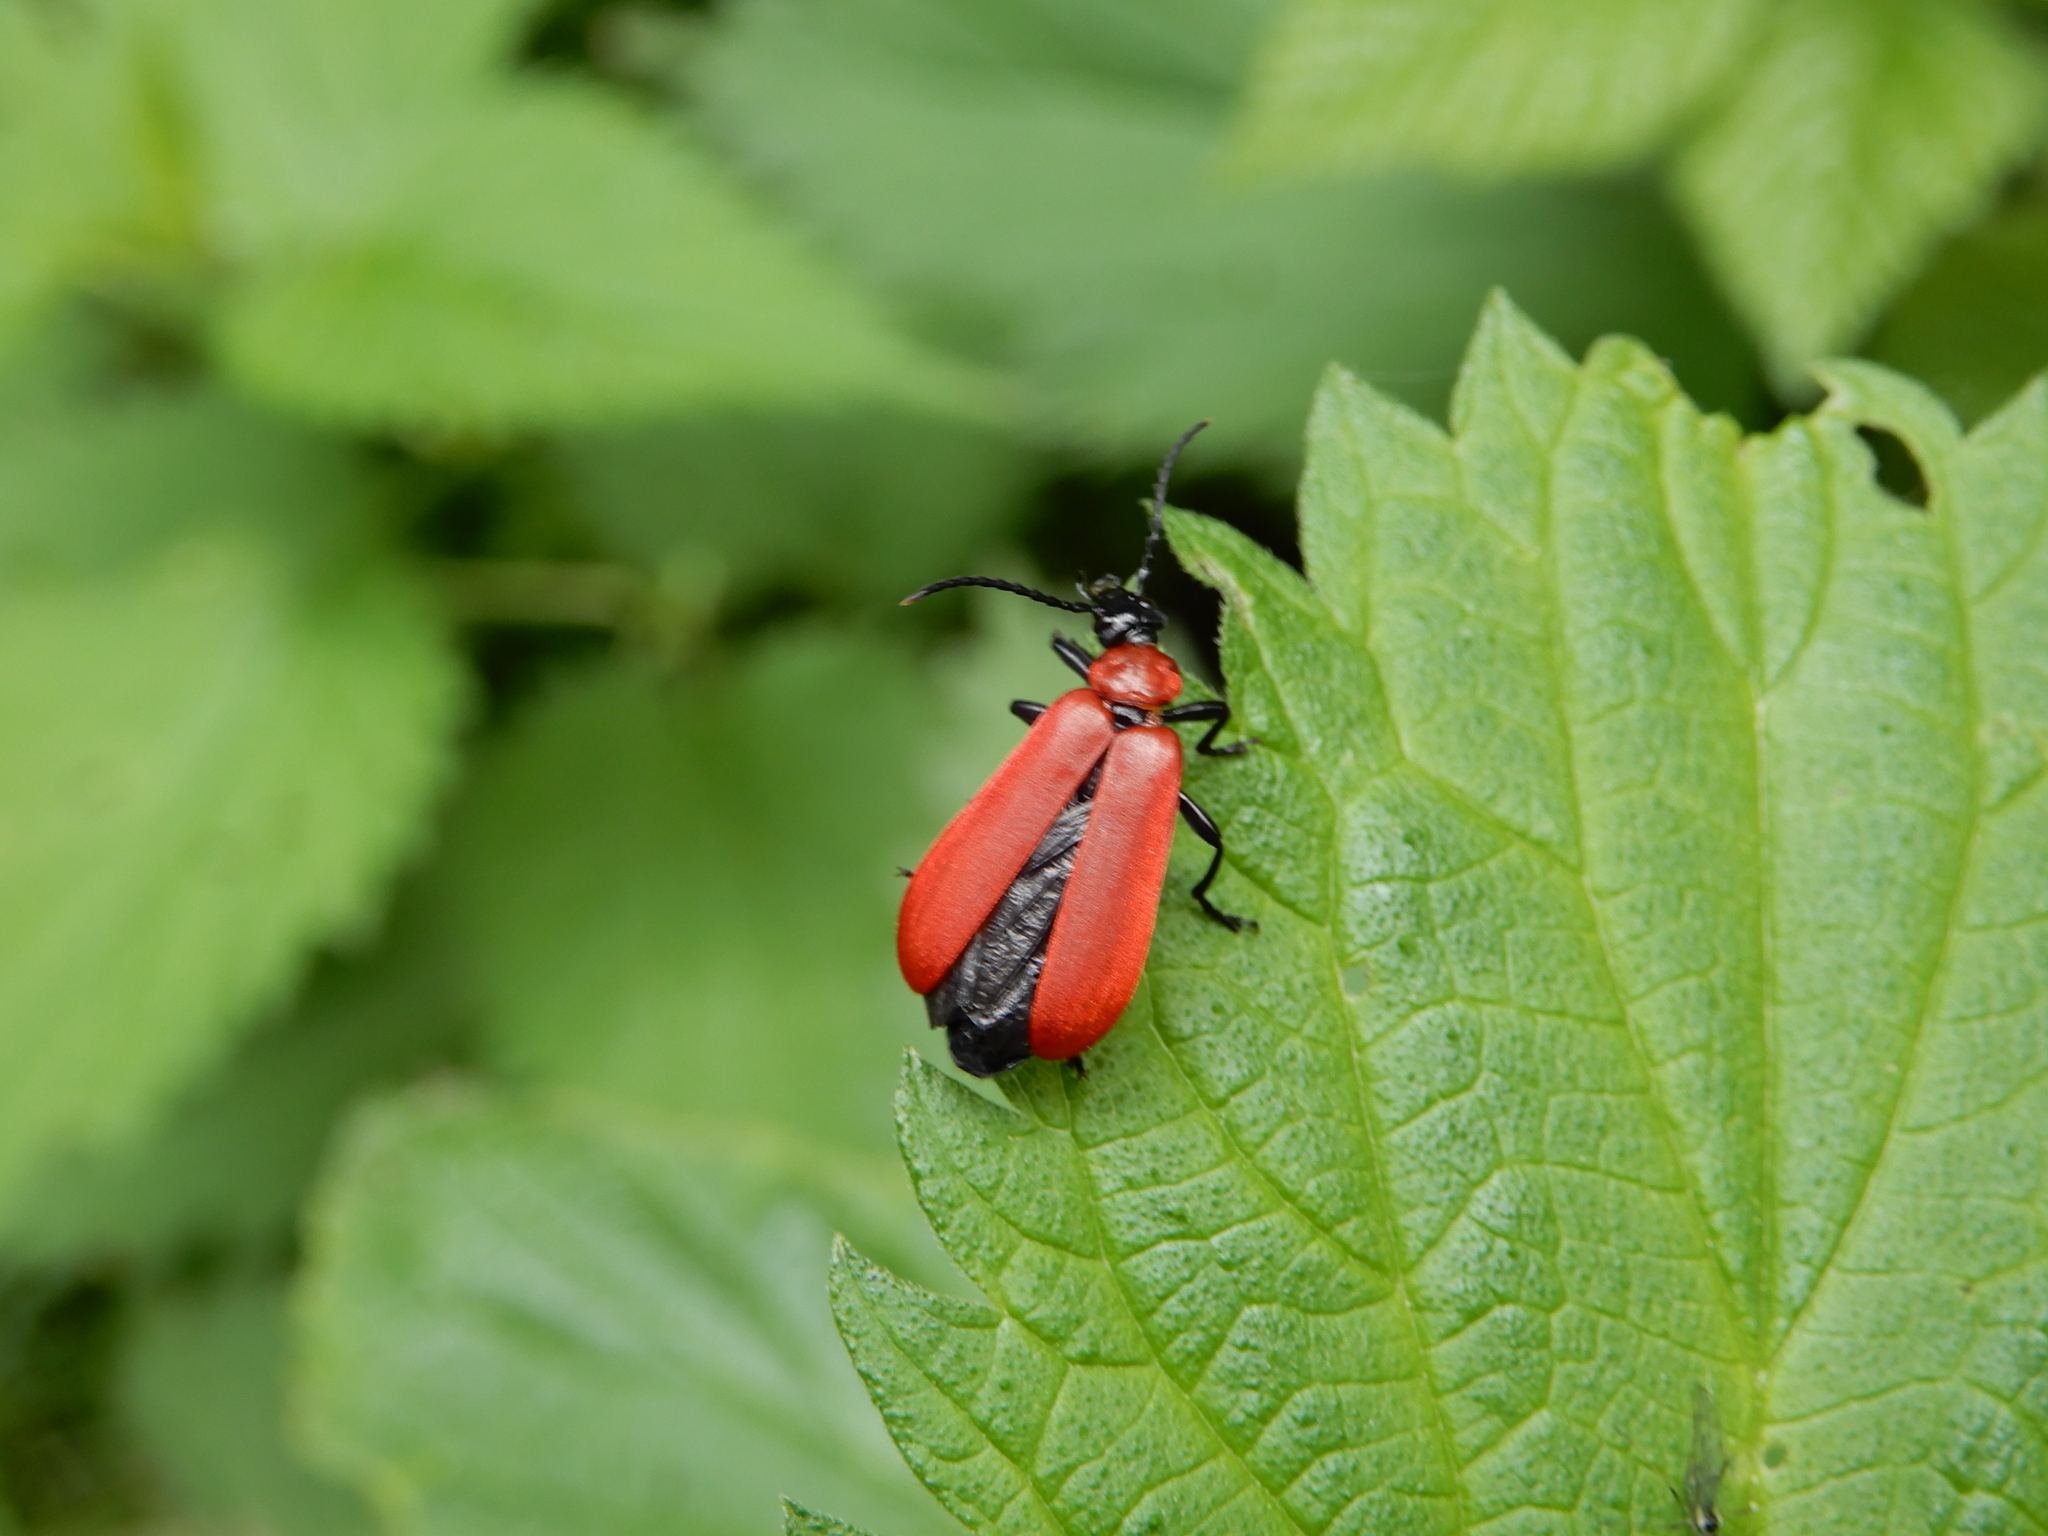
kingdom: Animalia
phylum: Arthropoda
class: Insecta
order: Coleoptera
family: Pyrochroidae
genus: Pyrochroa
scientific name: Pyrochroa coccinea
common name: Black-headed cardinal beetle
